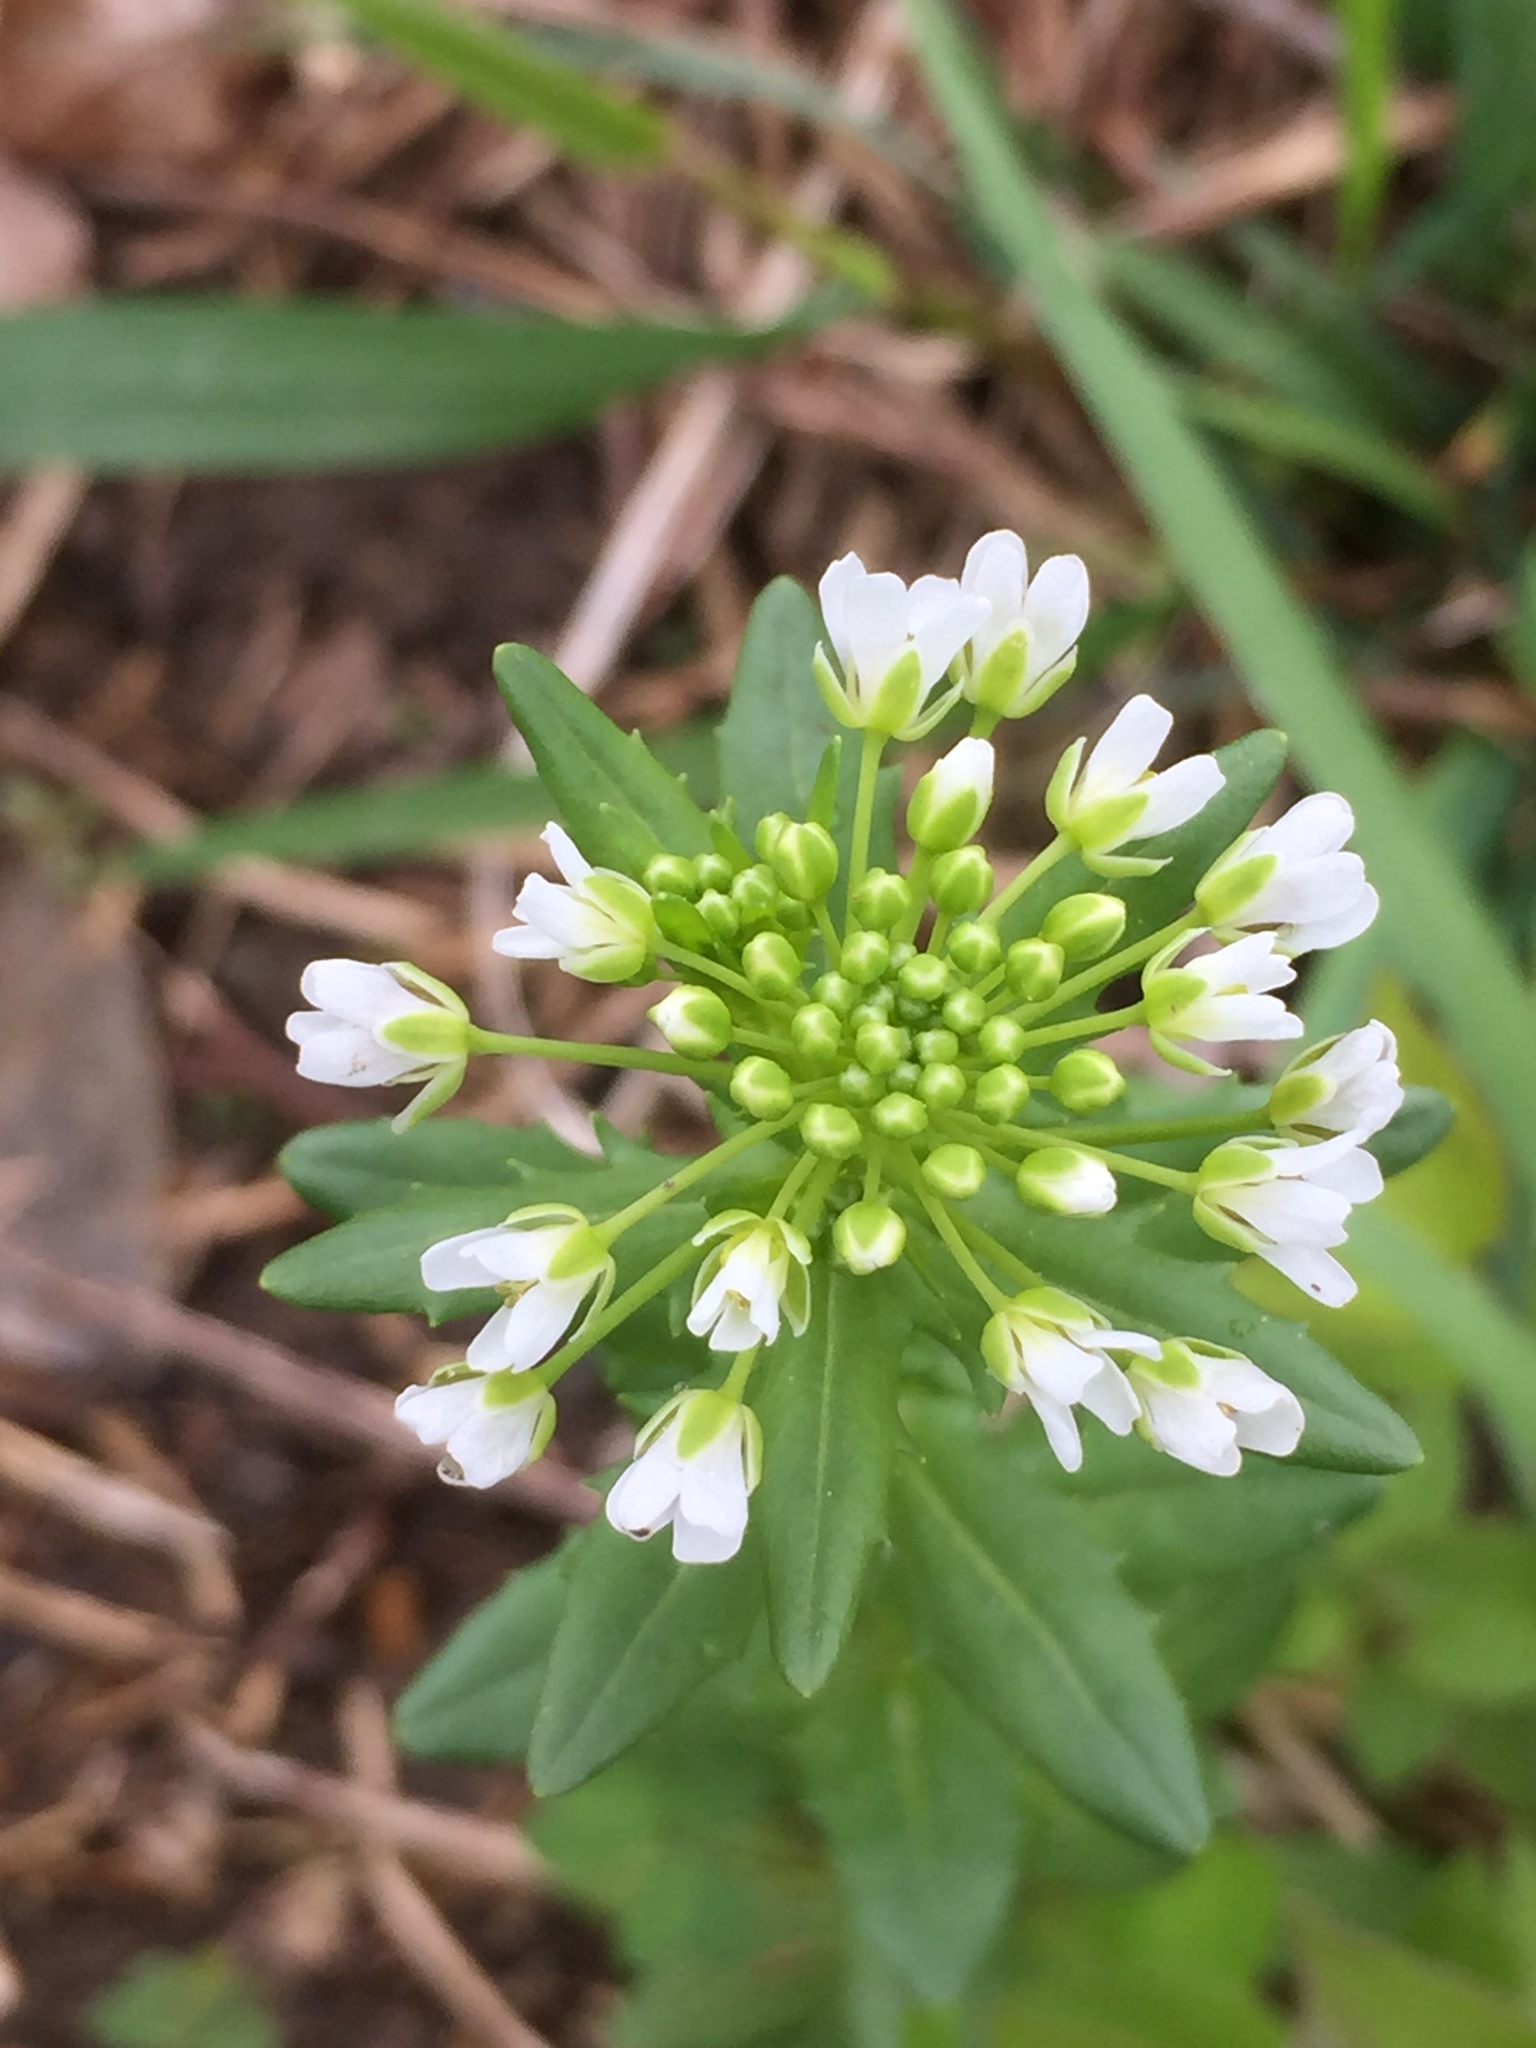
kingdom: Plantae
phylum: Tracheophyta
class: Magnoliopsida
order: Brassicales
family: Brassicaceae
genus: Thlaspi
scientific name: Thlaspi arvense
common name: Field pennycress
